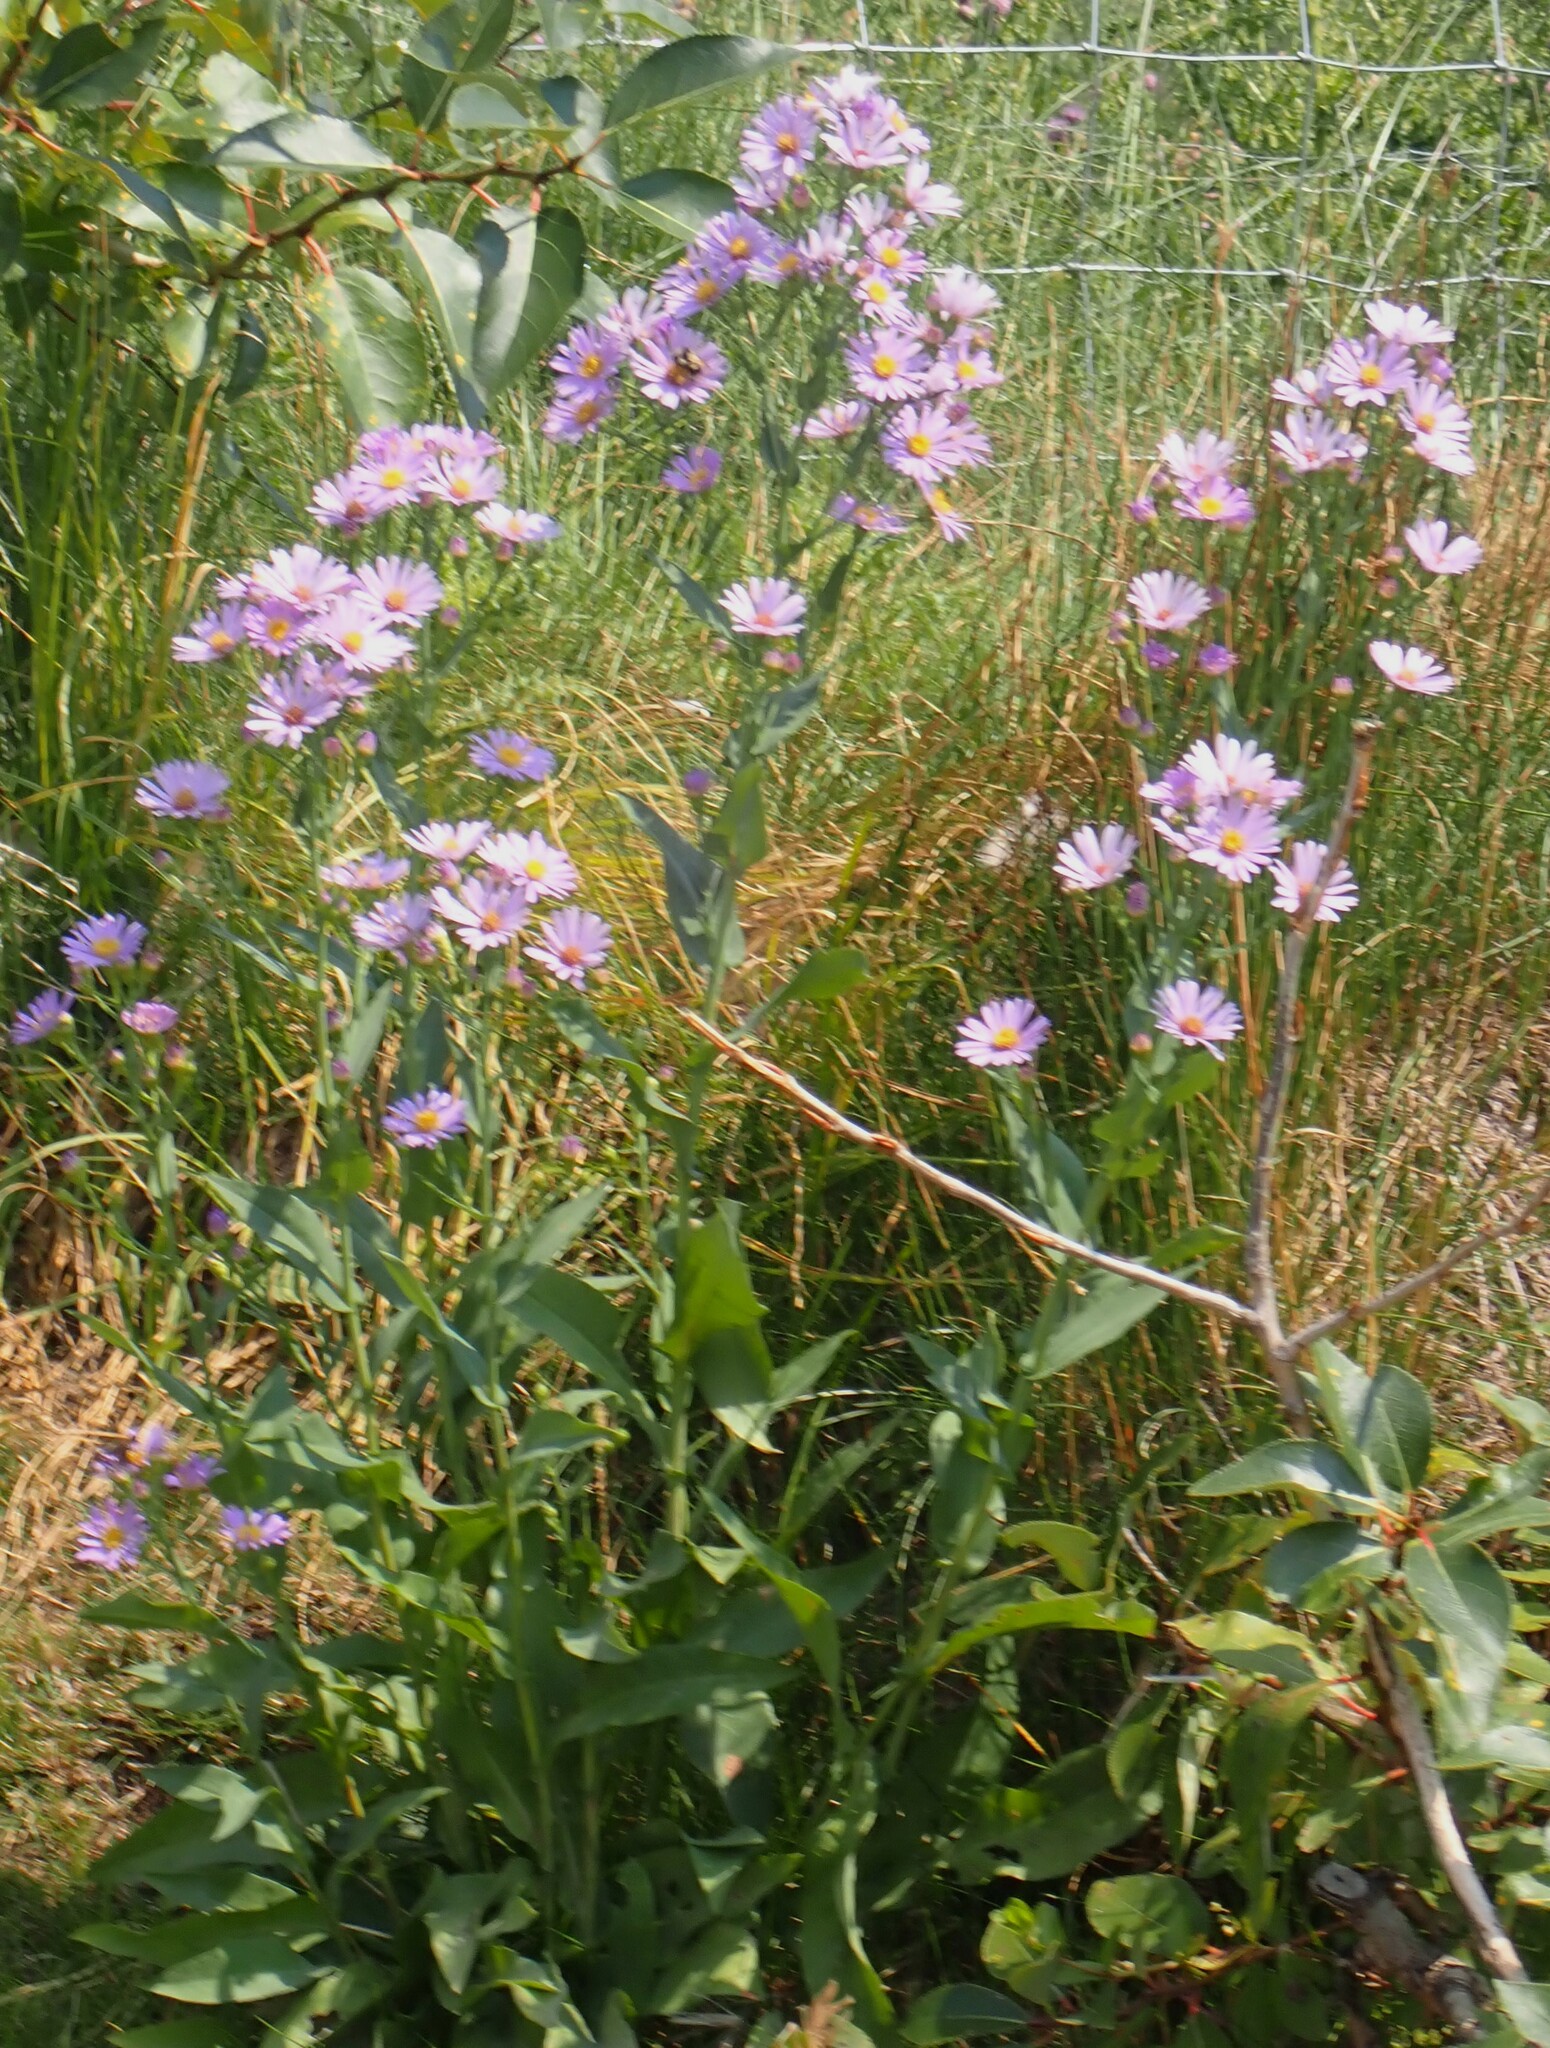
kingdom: Plantae
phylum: Tracheophyta
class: Magnoliopsida
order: Asterales
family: Asteraceae
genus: Symphyotrichum
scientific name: Symphyotrichum laeve
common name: Glaucous aster
